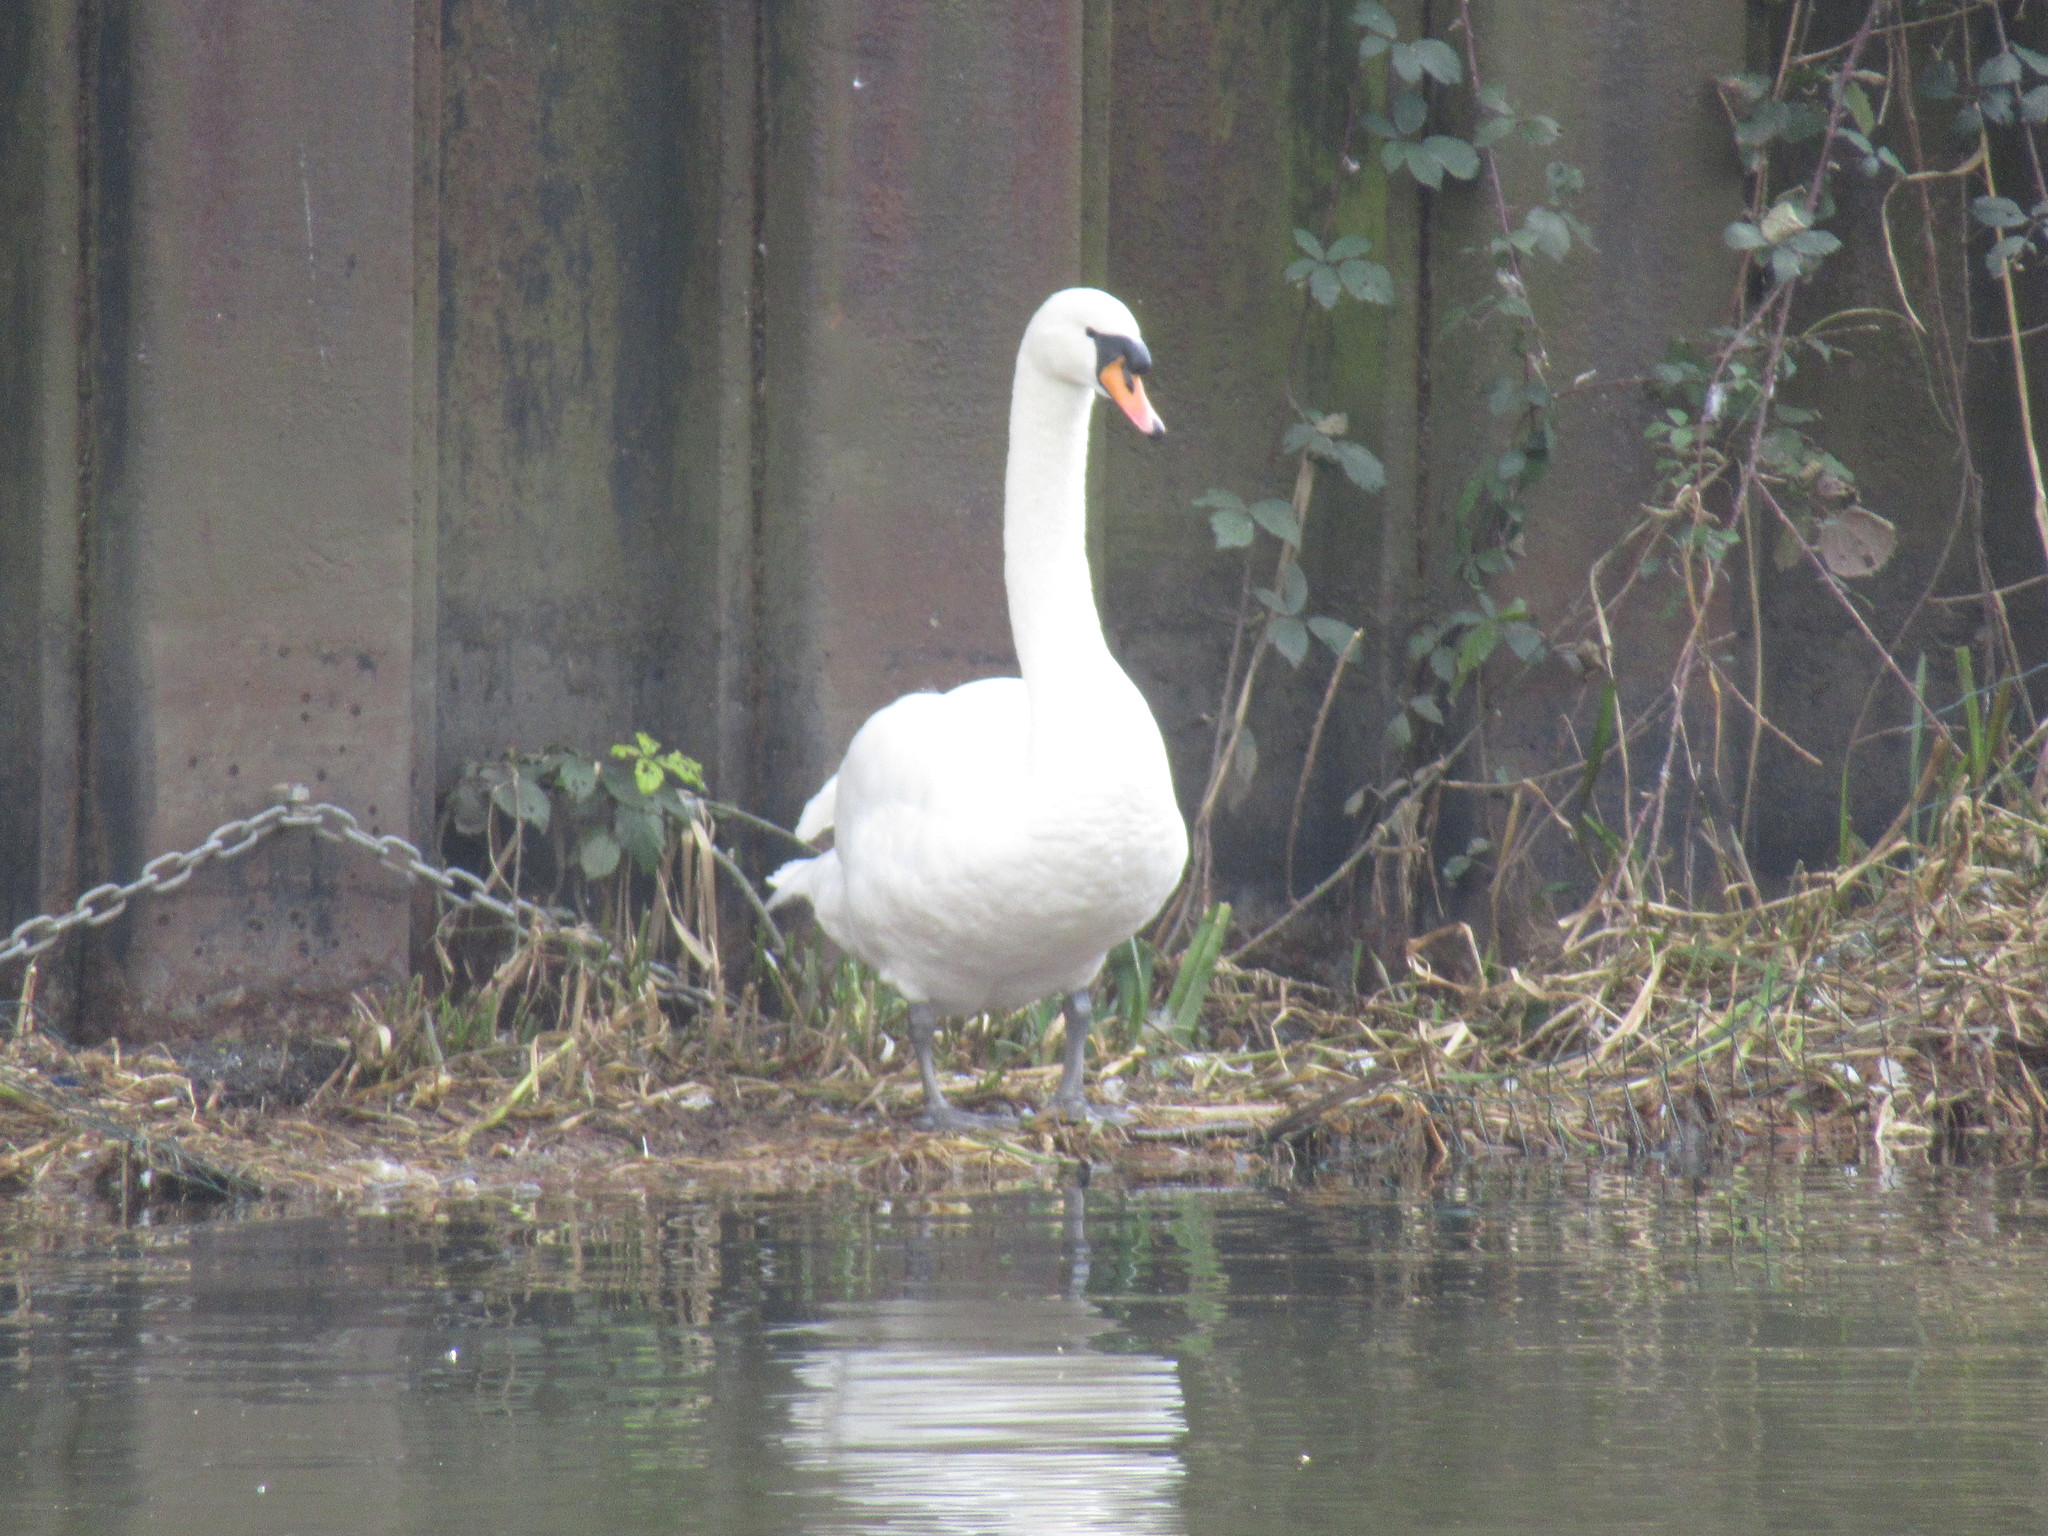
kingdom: Animalia
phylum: Chordata
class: Aves
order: Anseriformes
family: Anatidae
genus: Cygnus
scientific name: Cygnus olor
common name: Mute swan
